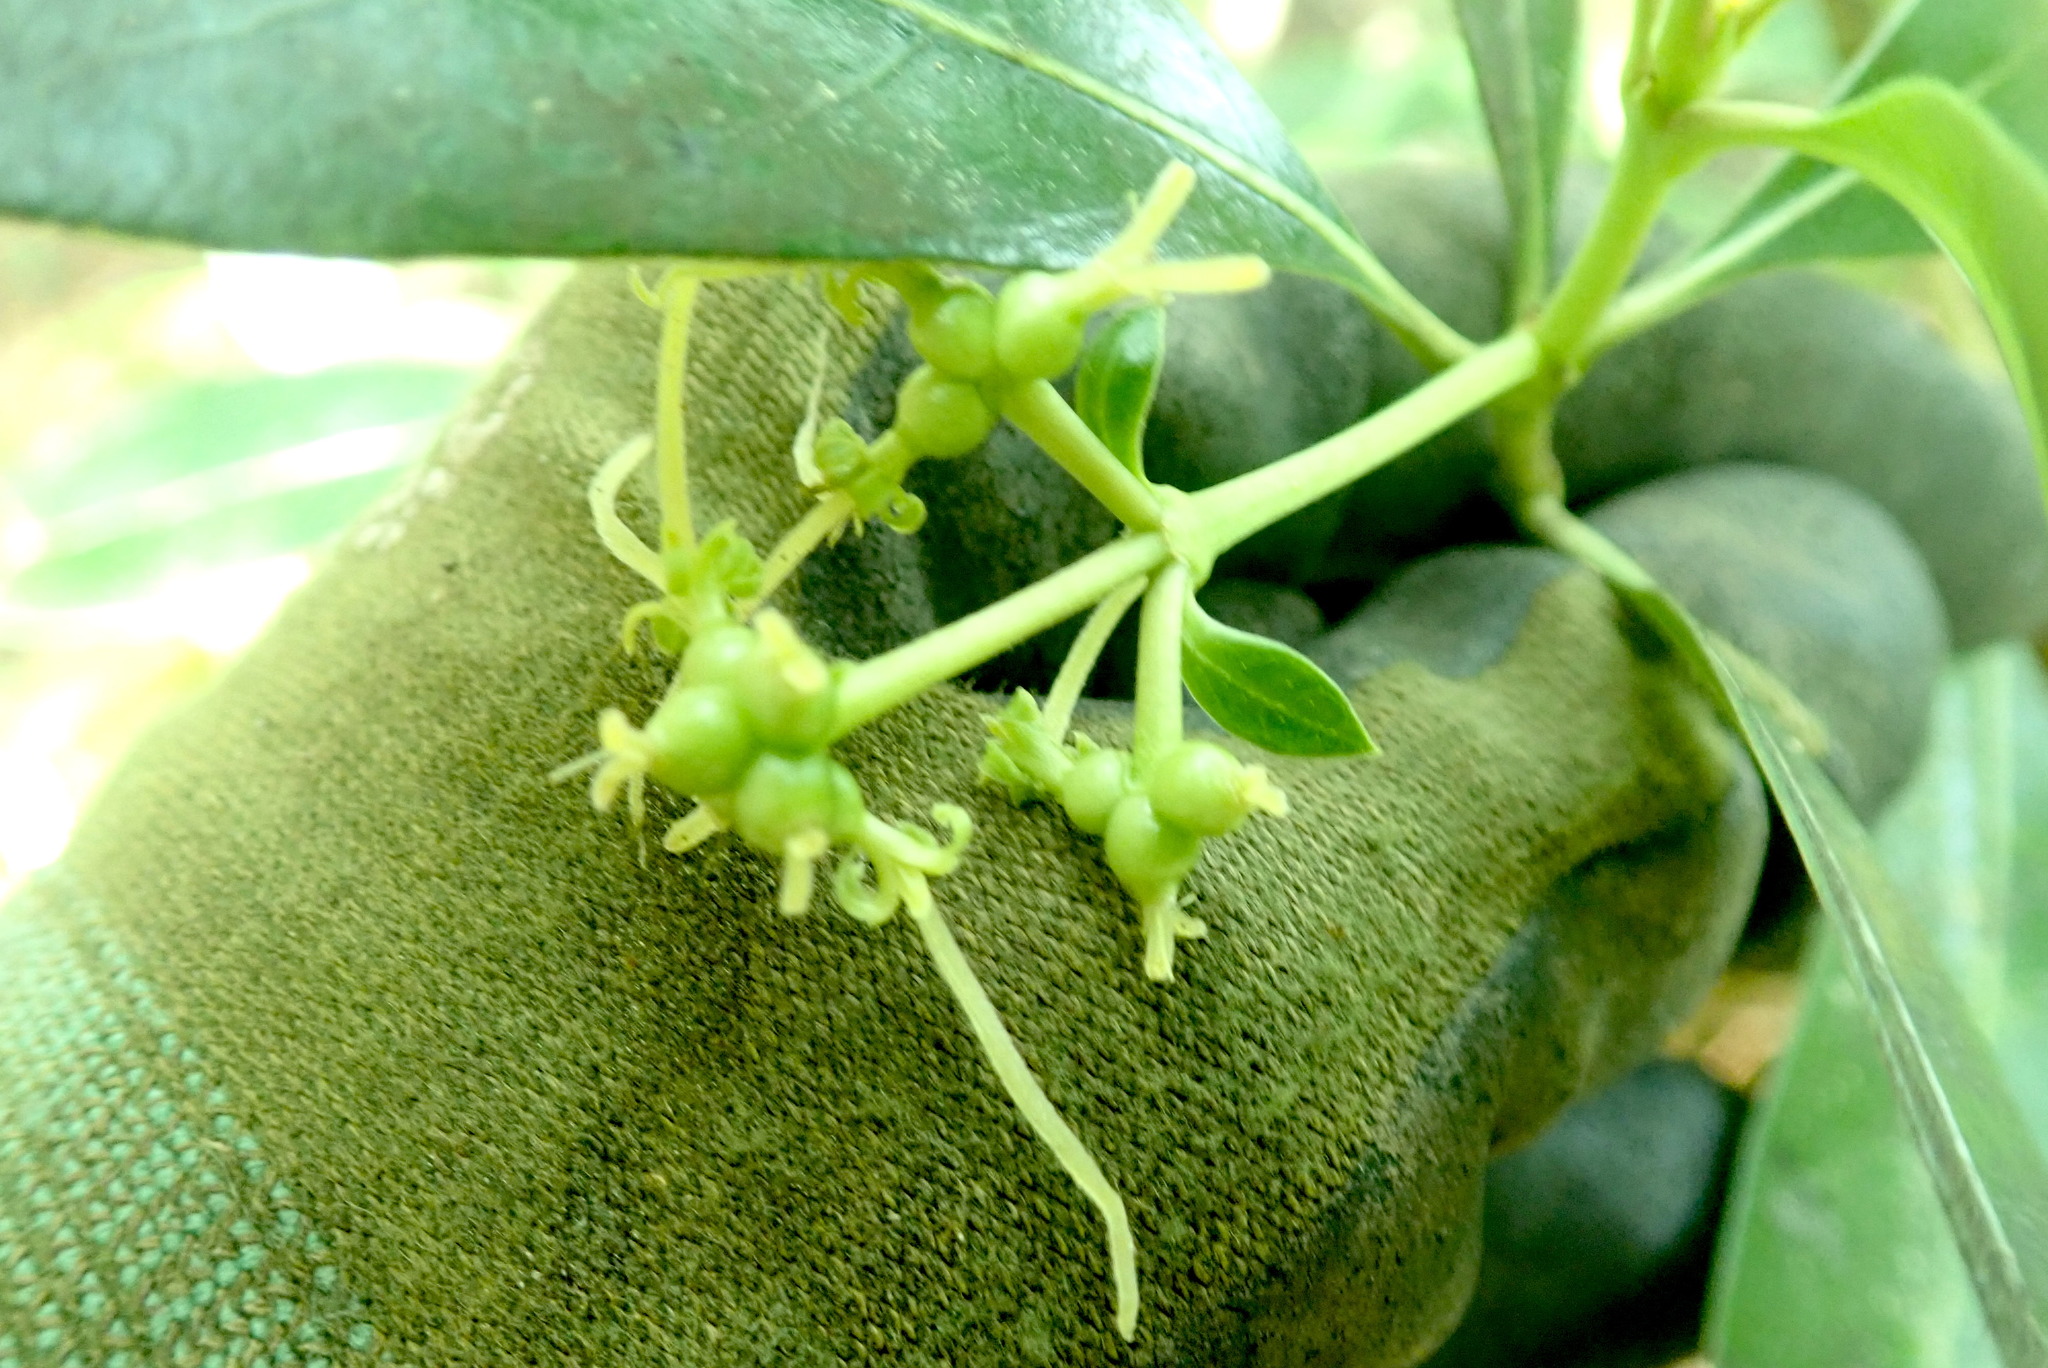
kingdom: Plantae
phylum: Tracheophyta
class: Magnoliopsida
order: Gentianales
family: Rubiaceae
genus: Coprosma
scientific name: Coprosma lucida
